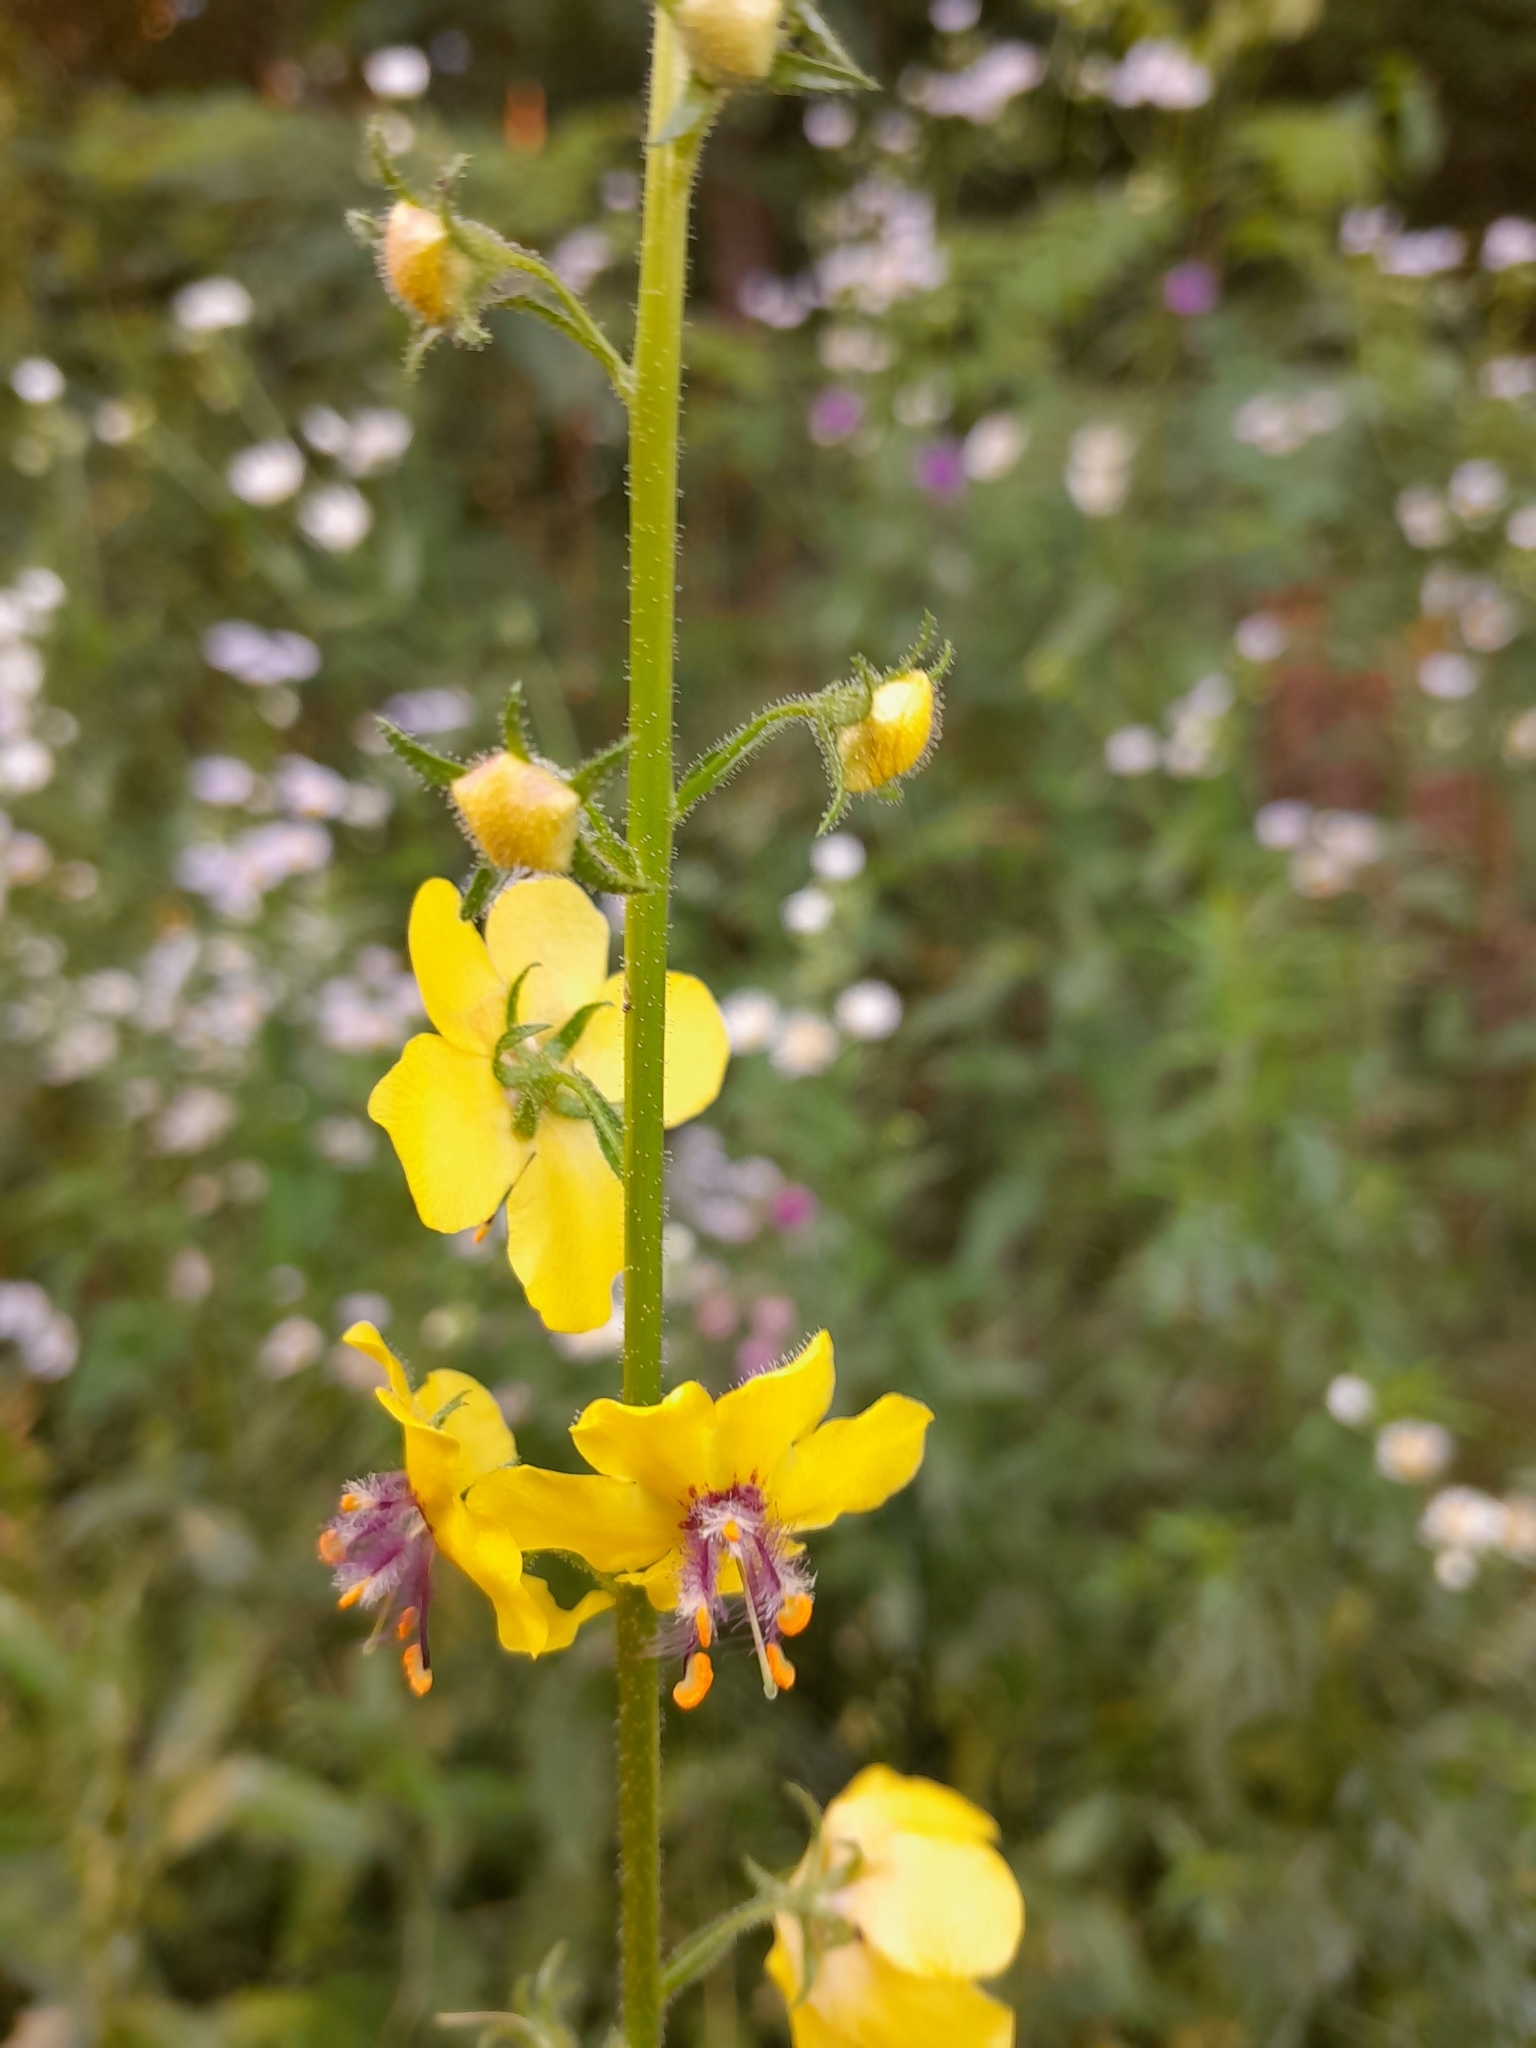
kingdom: Plantae
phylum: Tracheophyta
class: Magnoliopsida
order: Lamiales
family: Scrophulariaceae
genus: Verbascum
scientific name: Verbascum blattaria
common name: Moth mullein
